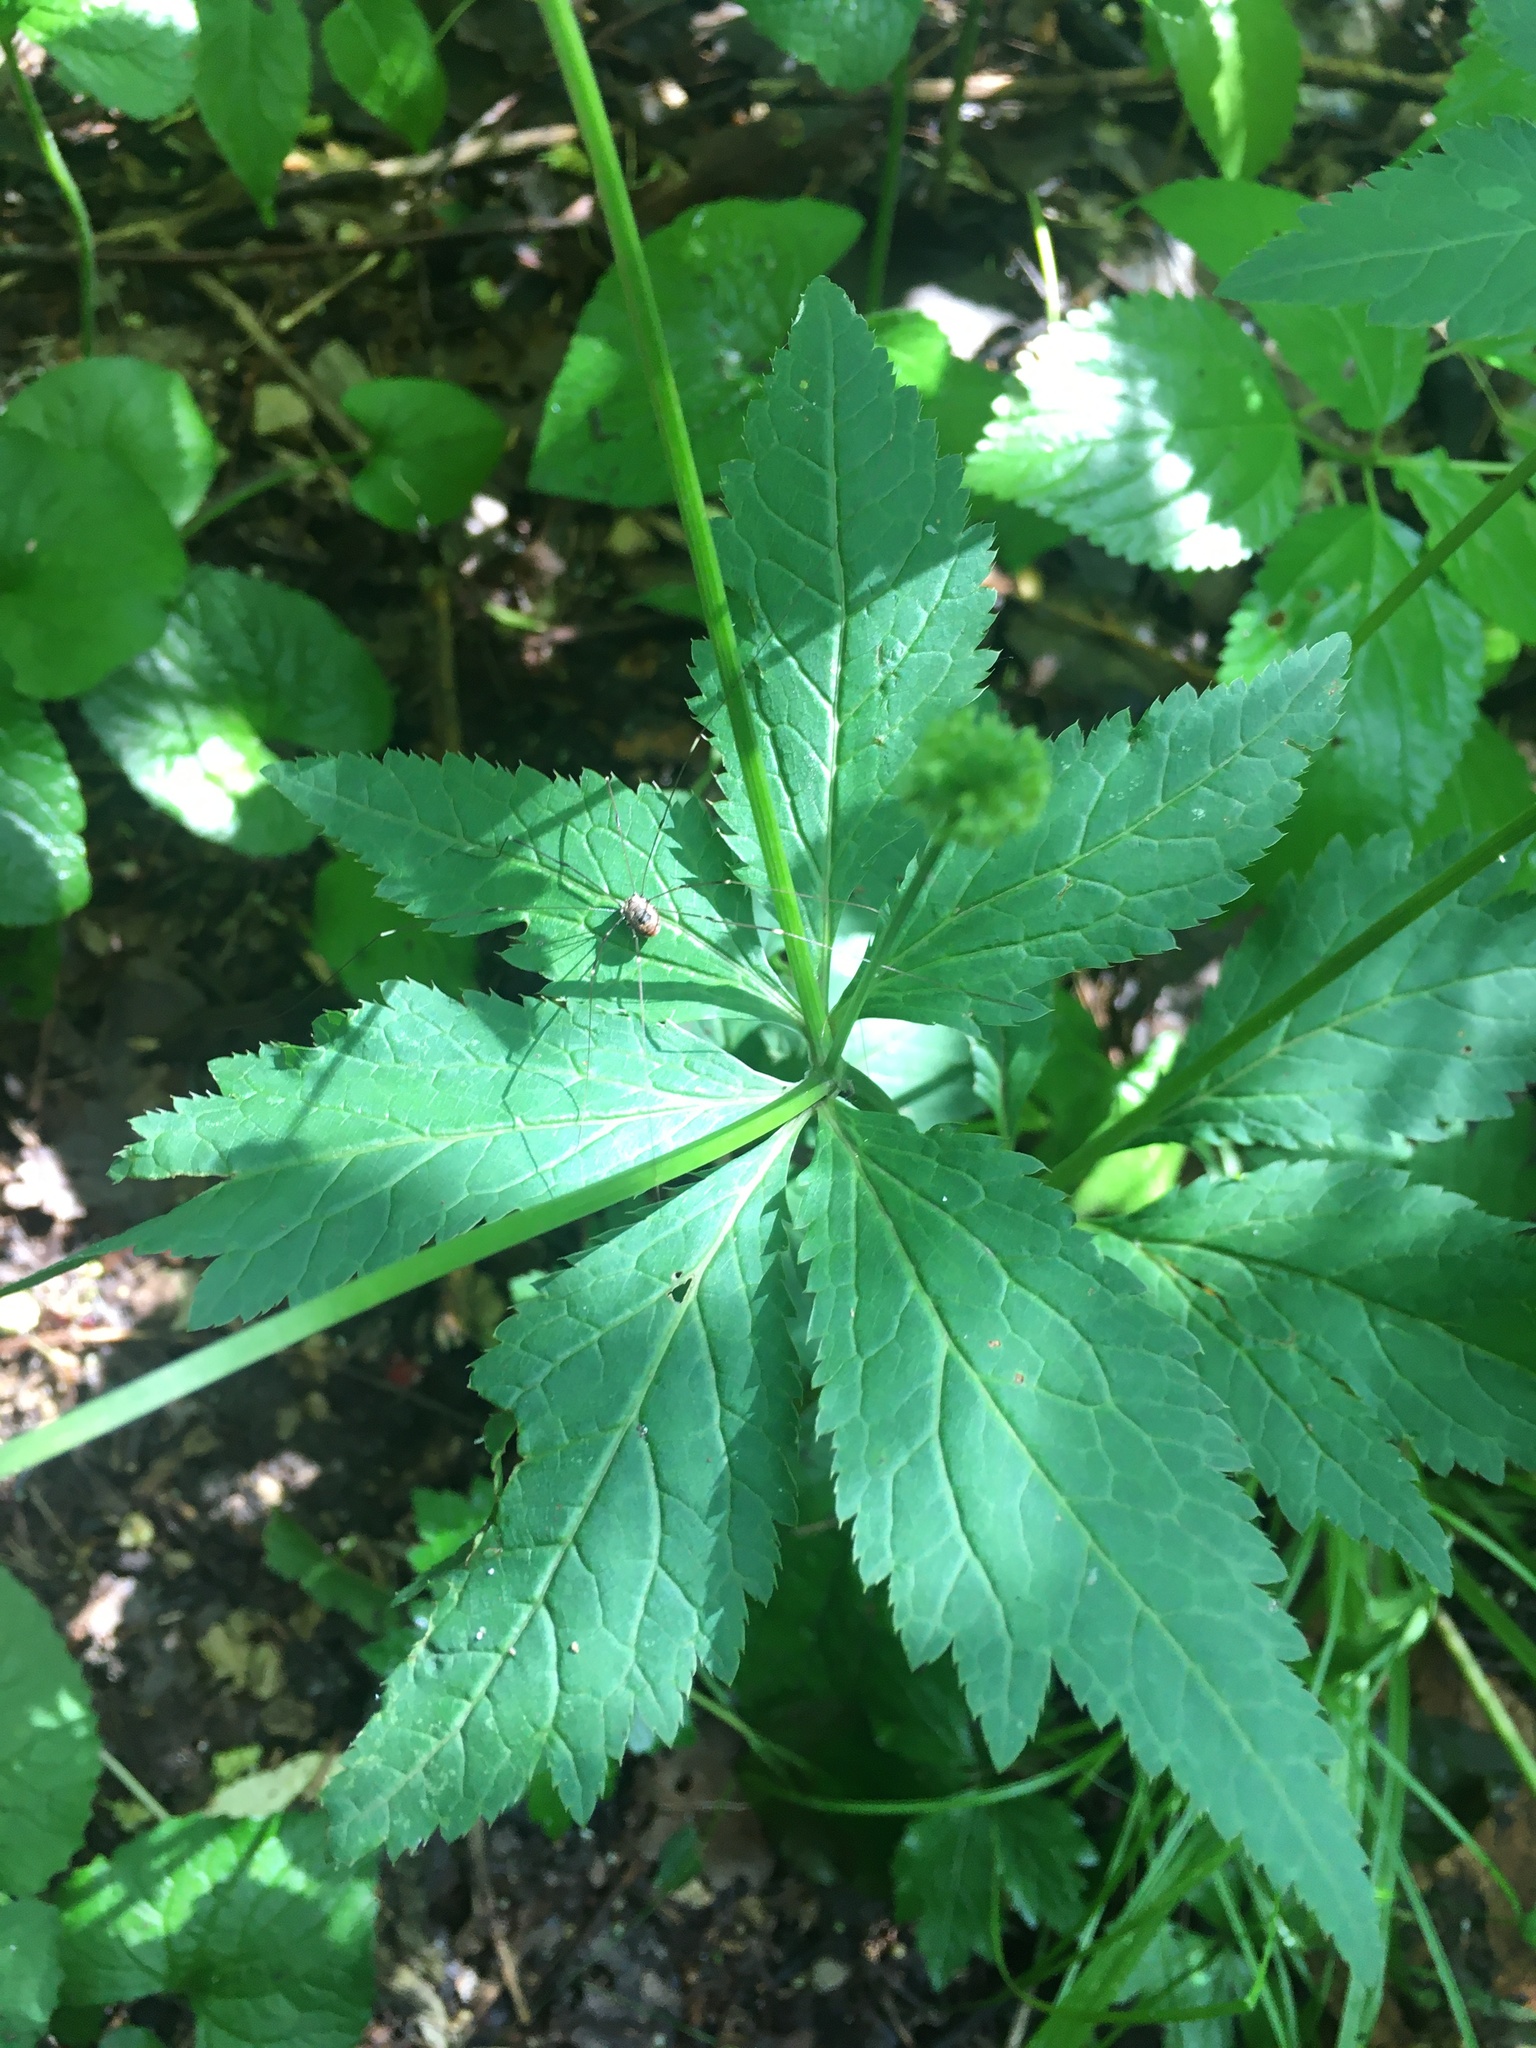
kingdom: Plantae
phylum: Tracheophyta
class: Magnoliopsida
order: Apiales
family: Apiaceae
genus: Sanicula
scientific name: Sanicula canadensis
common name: Canada sanicle
